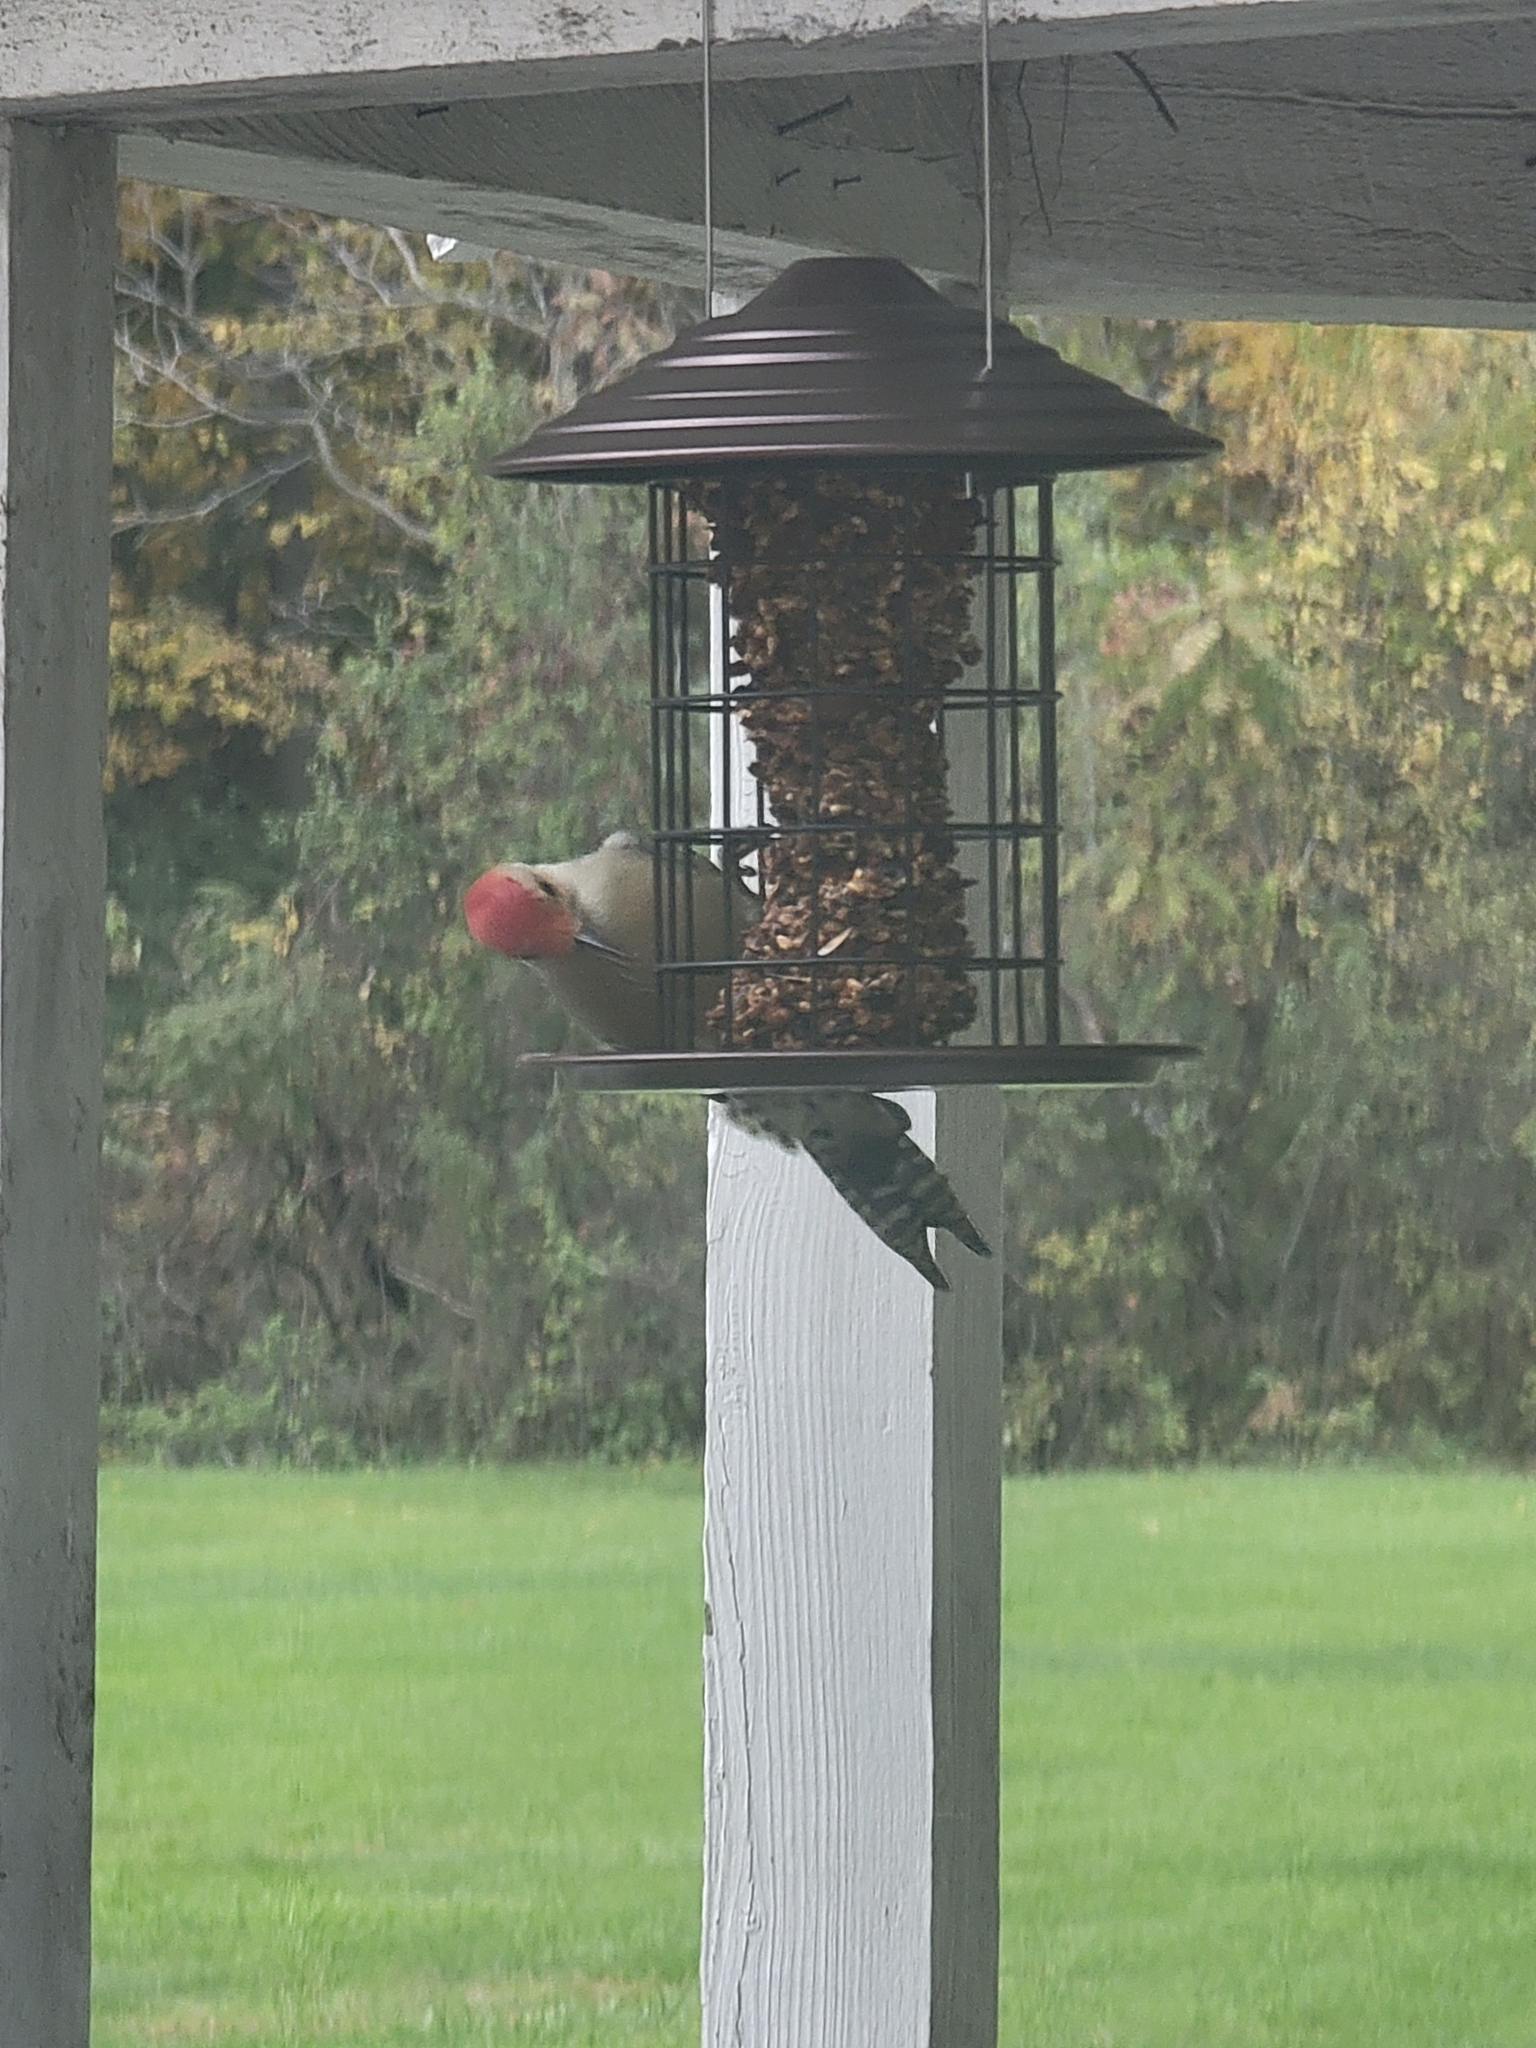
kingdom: Animalia
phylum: Chordata
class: Aves
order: Piciformes
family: Picidae
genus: Melanerpes
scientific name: Melanerpes carolinus
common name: Red-bellied woodpecker
